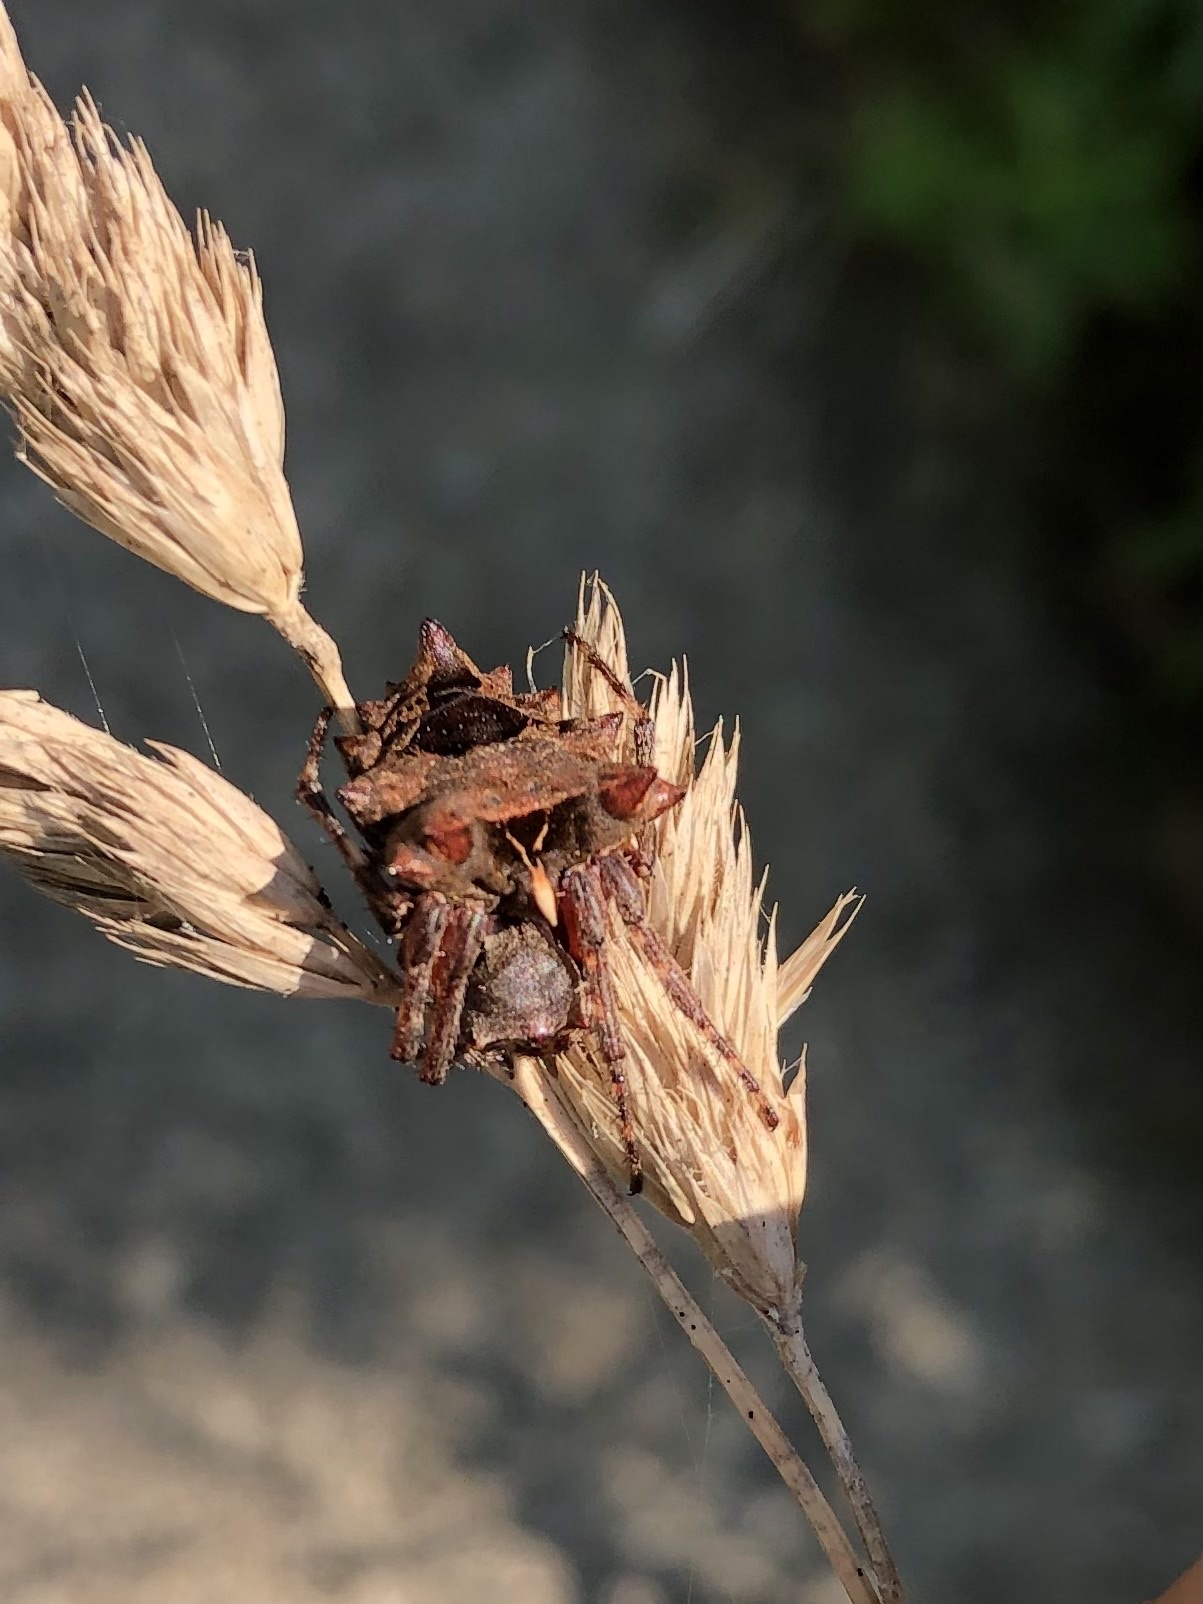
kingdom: Animalia
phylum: Arthropoda
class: Arachnida
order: Araneae
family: Araneidae
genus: Acanthepeira
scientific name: Acanthepeira stellata
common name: Starbellied orbweaver
